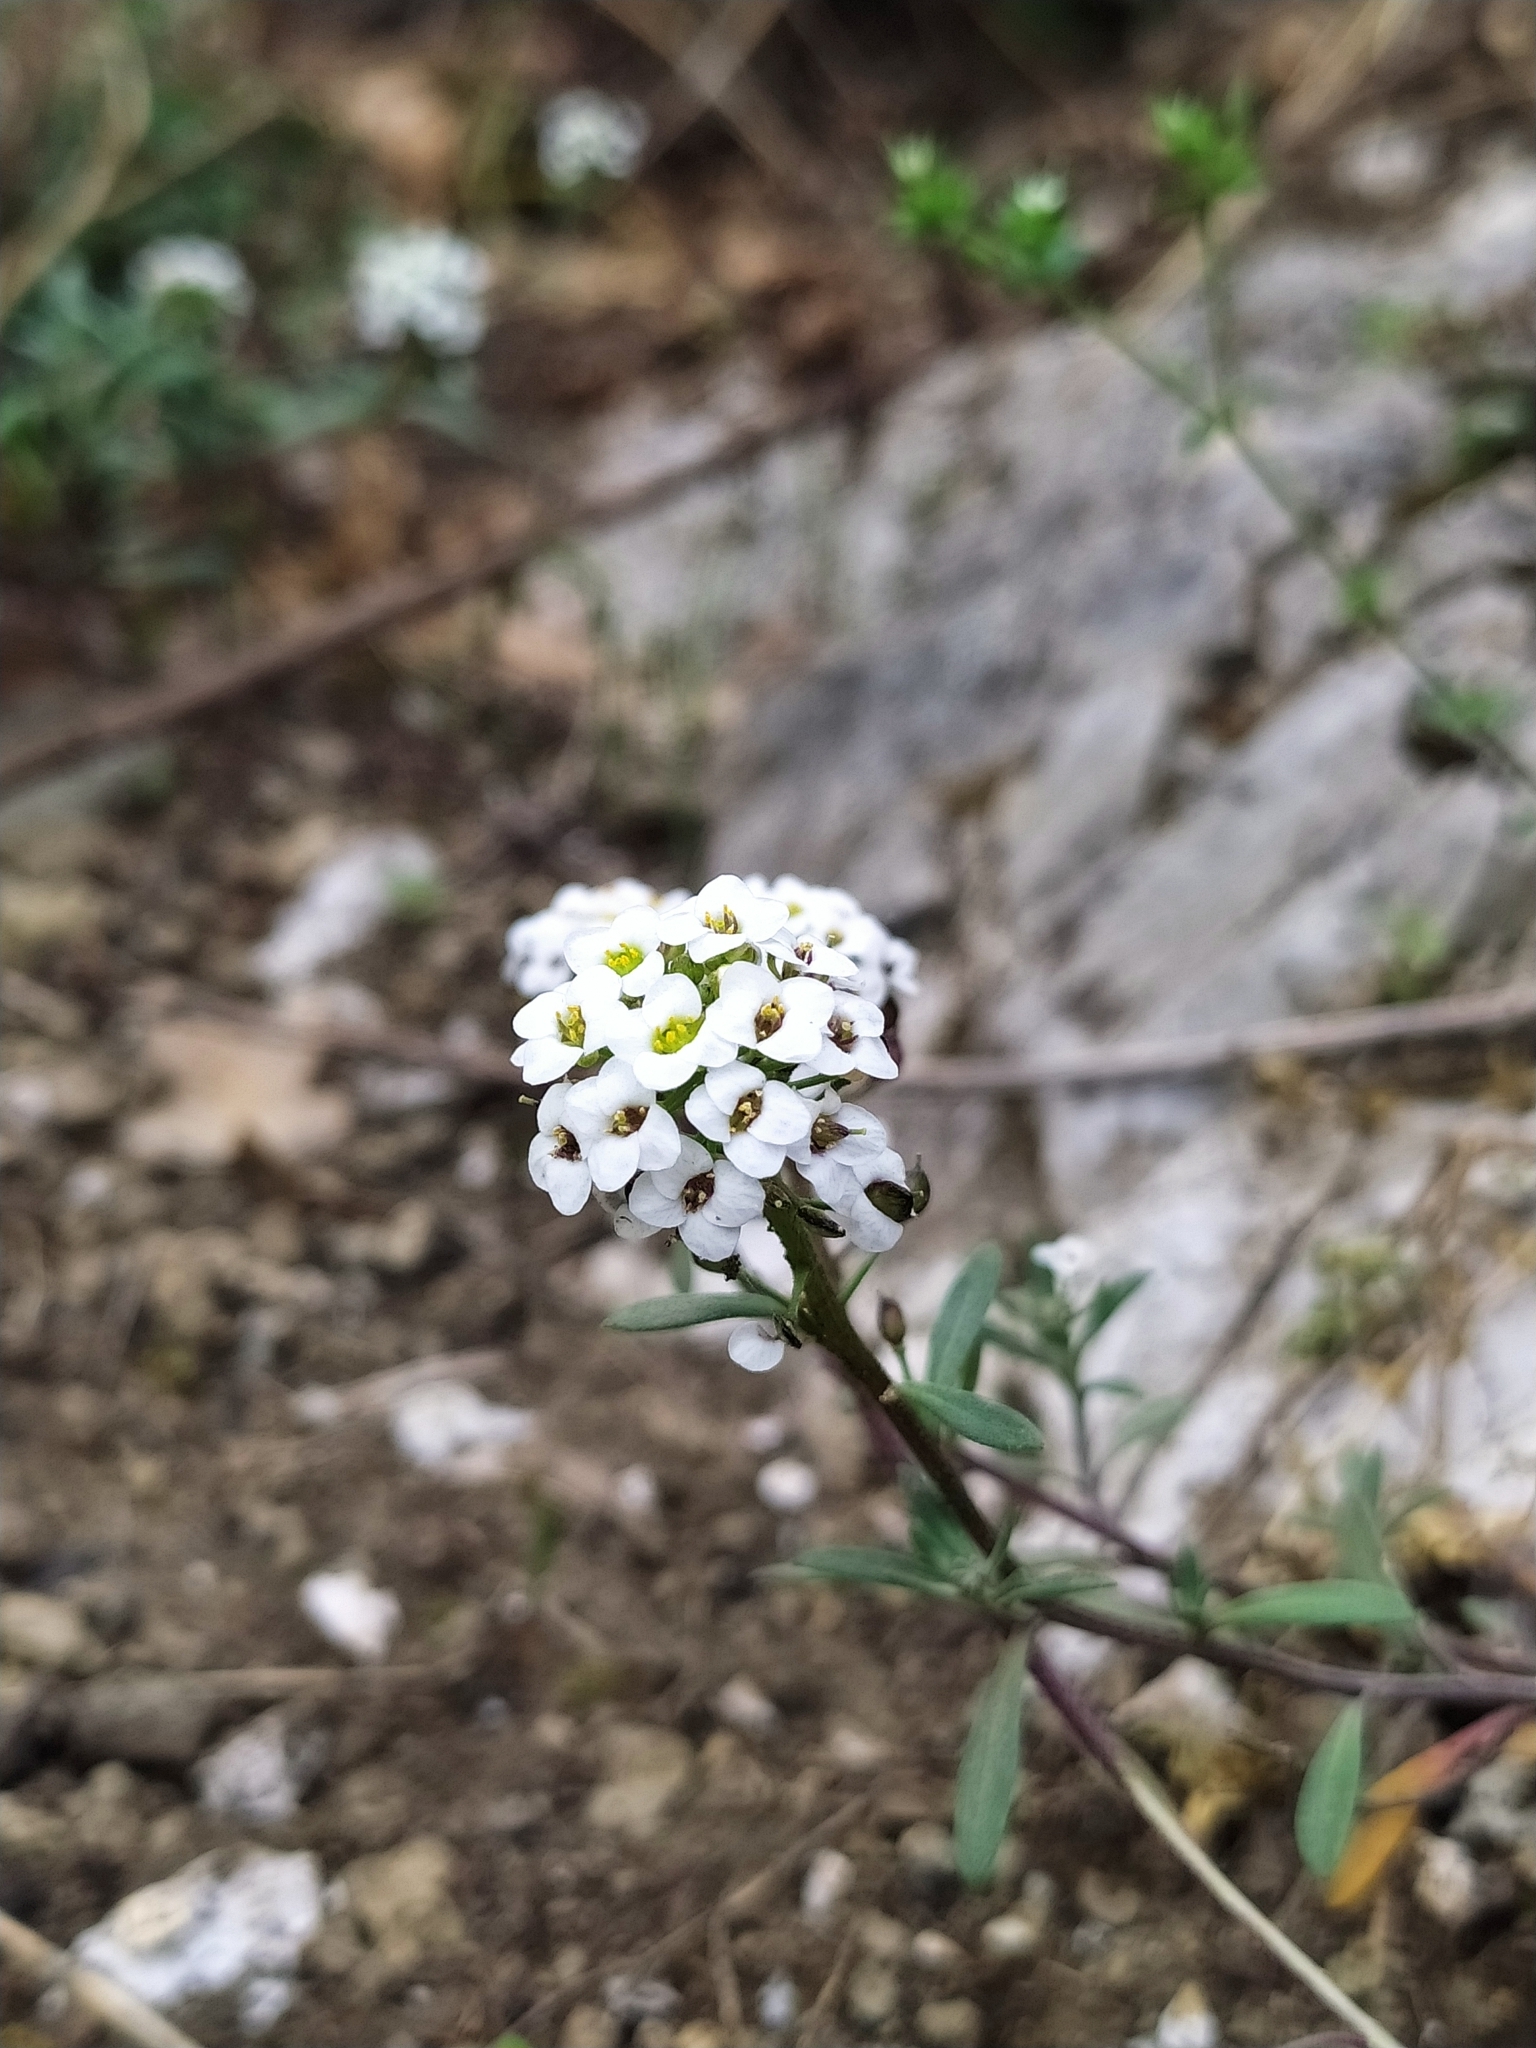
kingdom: Plantae
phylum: Tracheophyta
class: Magnoliopsida
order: Brassicales
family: Brassicaceae
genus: Lobularia
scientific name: Lobularia maritima
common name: Sweet alison
